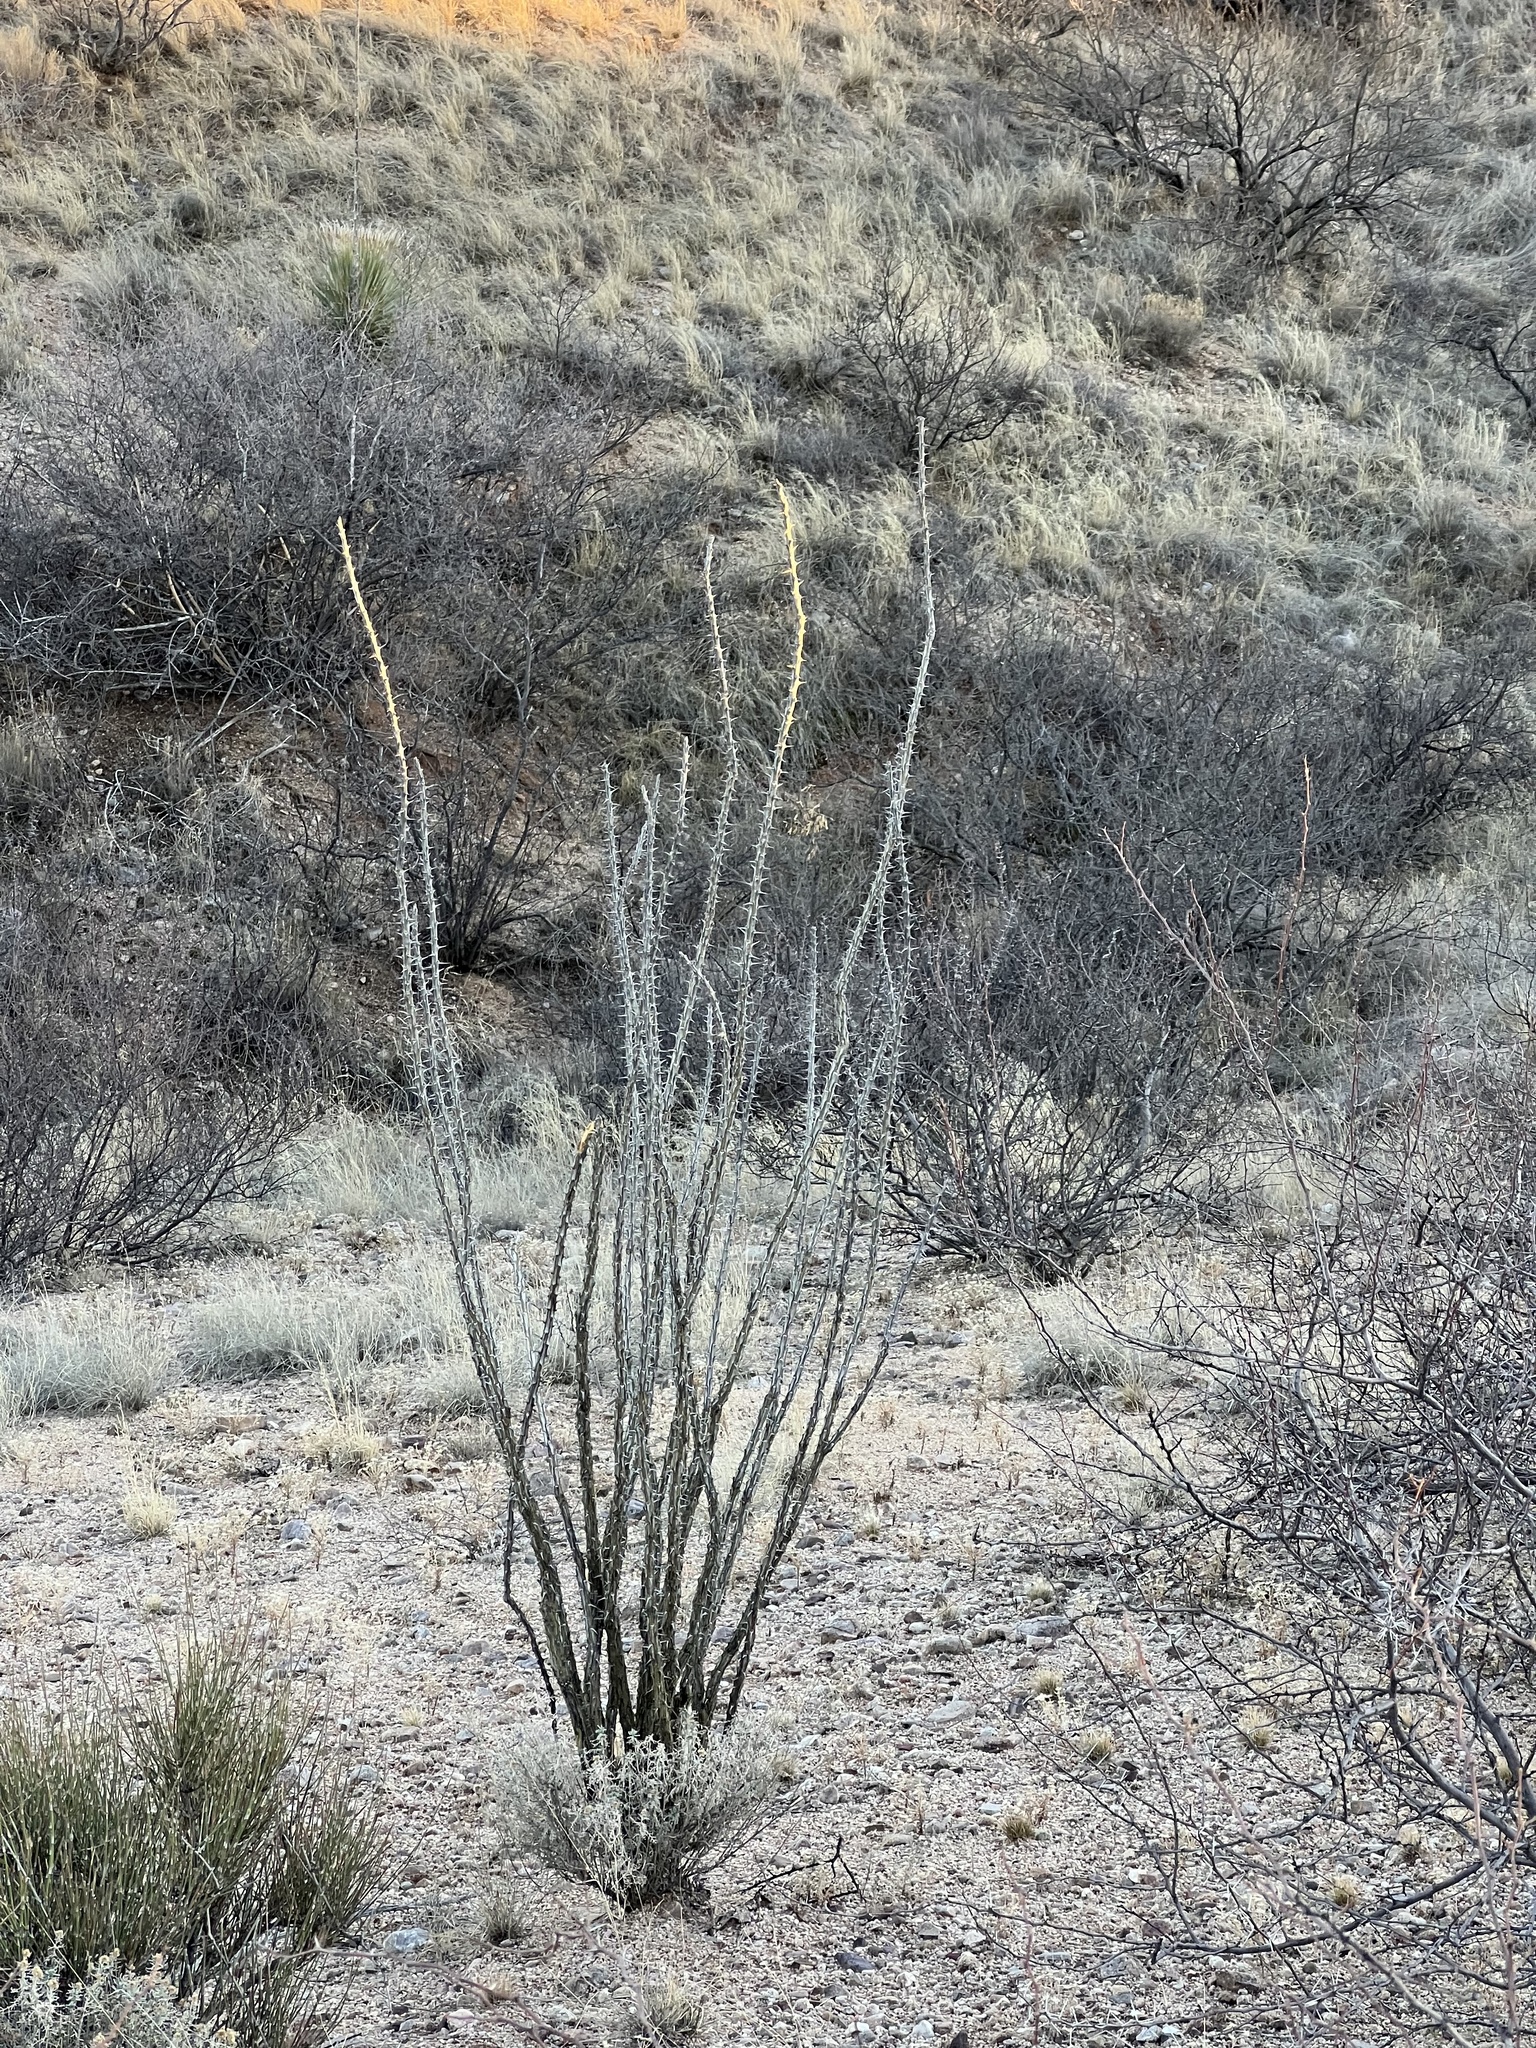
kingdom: Plantae
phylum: Tracheophyta
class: Magnoliopsida
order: Ericales
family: Fouquieriaceae
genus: Fouquieria
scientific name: Fouquieria splendens
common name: Vine-cactus
